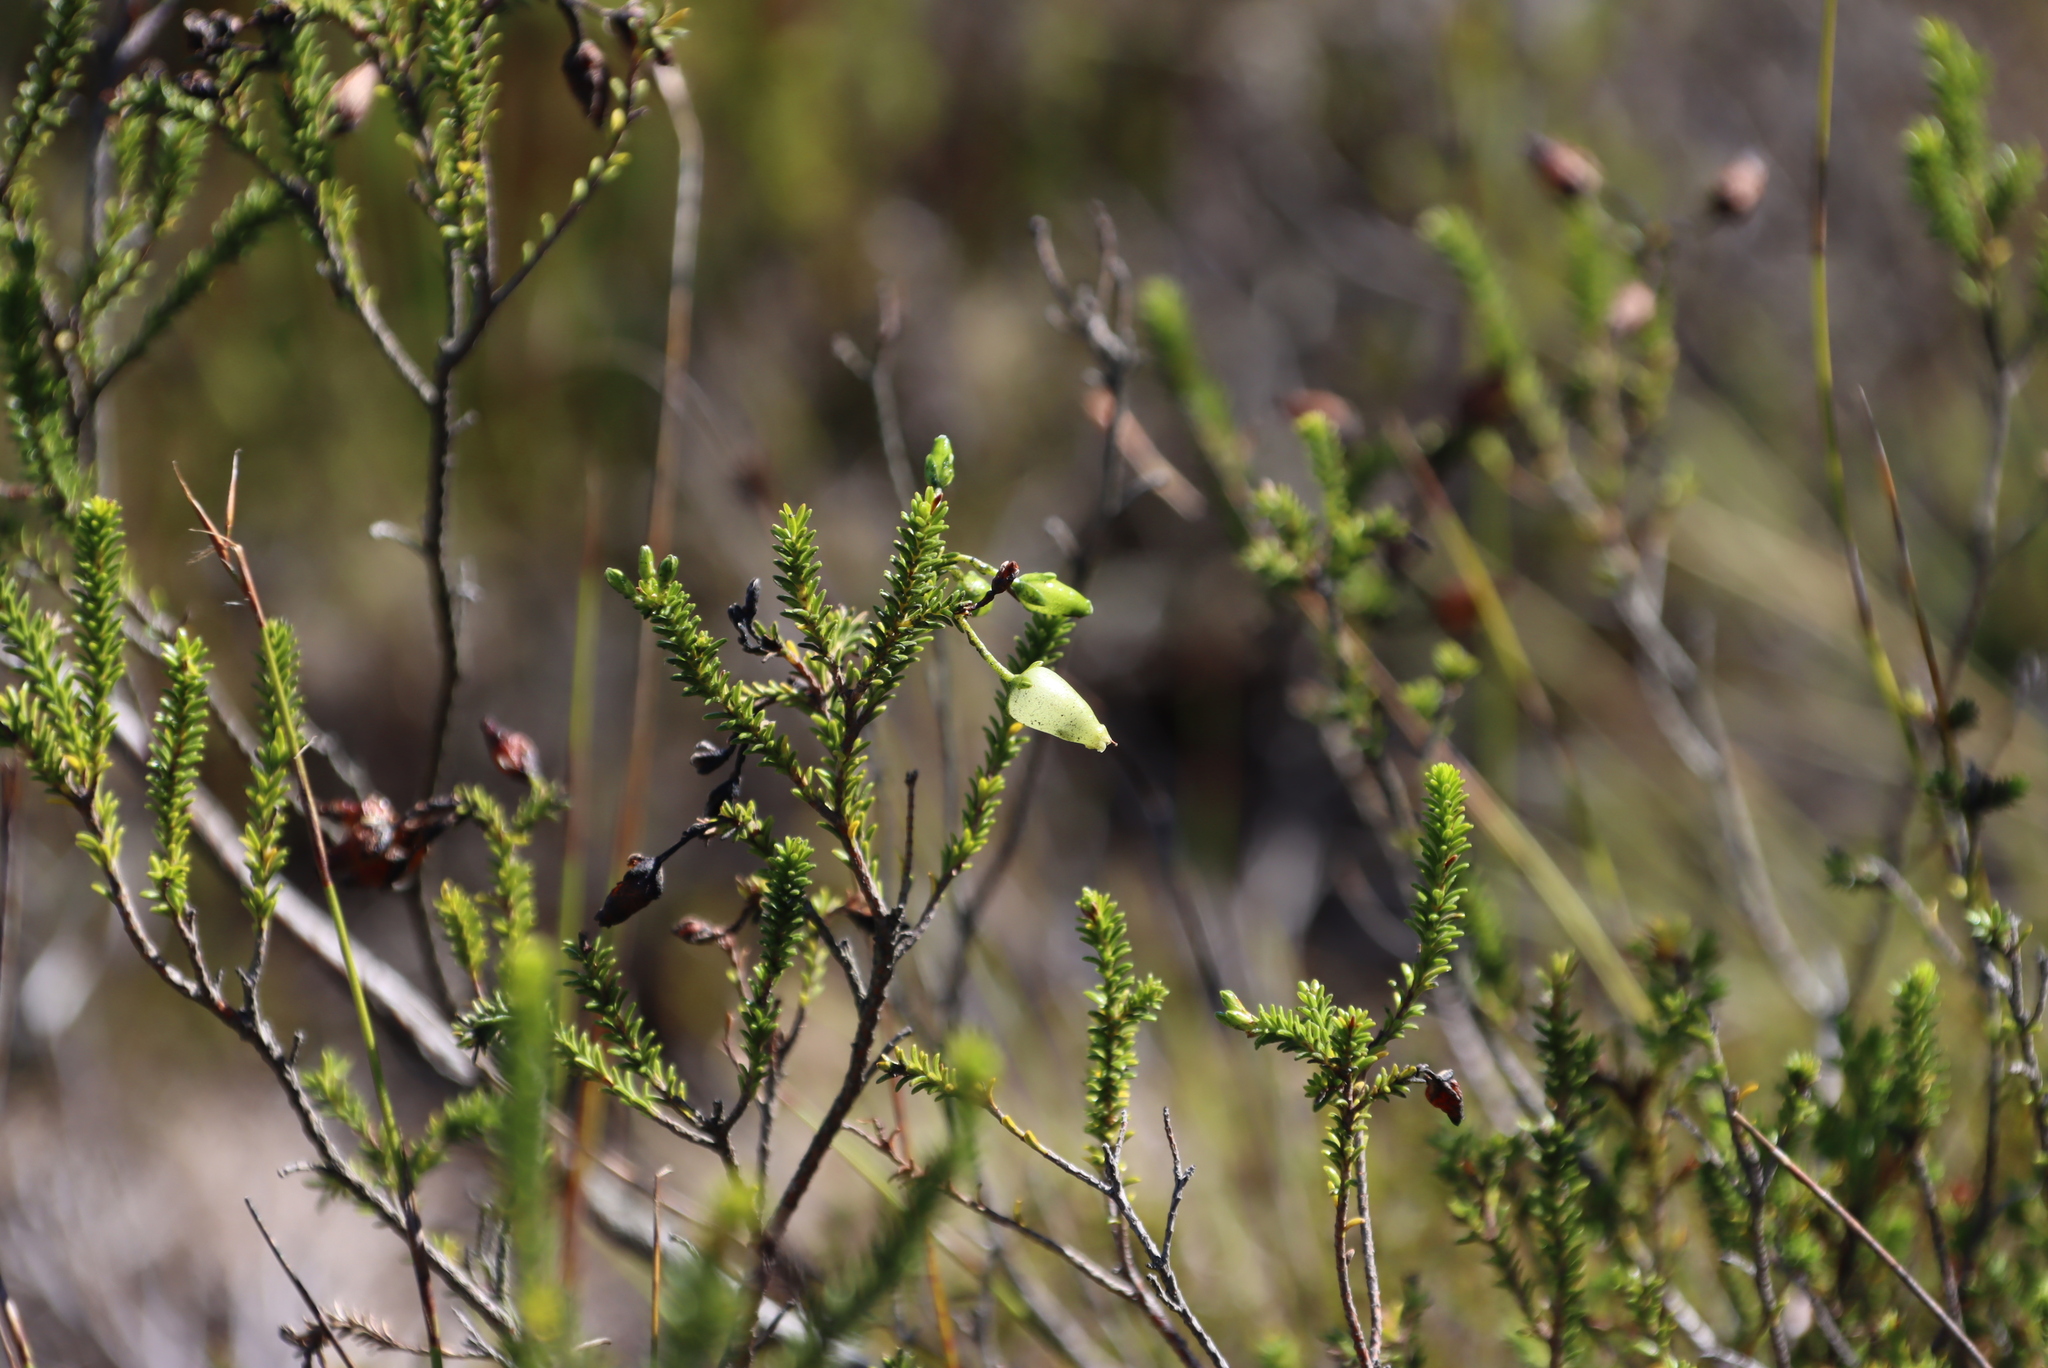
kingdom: Plantae
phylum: Tracheophyta
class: Magnoliopsida
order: Ericales
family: Ericaceae
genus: Erica
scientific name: Erica urna-viridis
